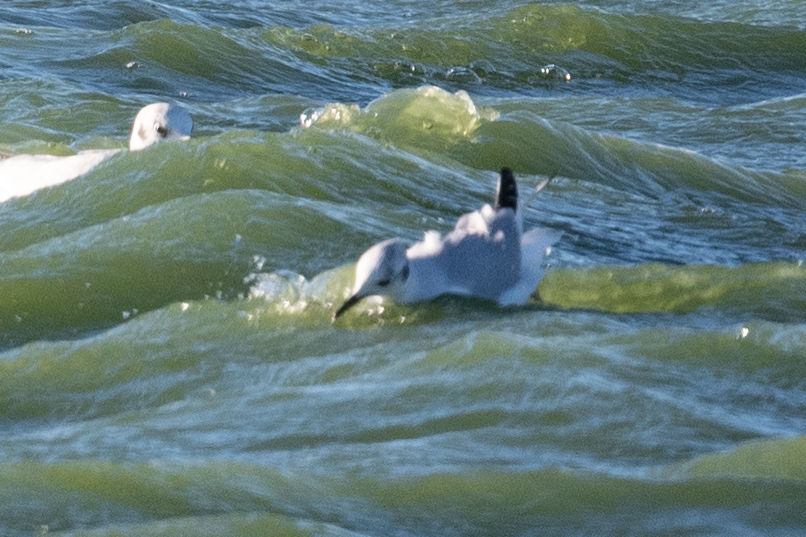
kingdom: Animalia
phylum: Chordata
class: Aves
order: Charadriiformes
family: Laridae
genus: Chroicocephalus
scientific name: Chroicocephalus philadelphia
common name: Bonaparte's gull
